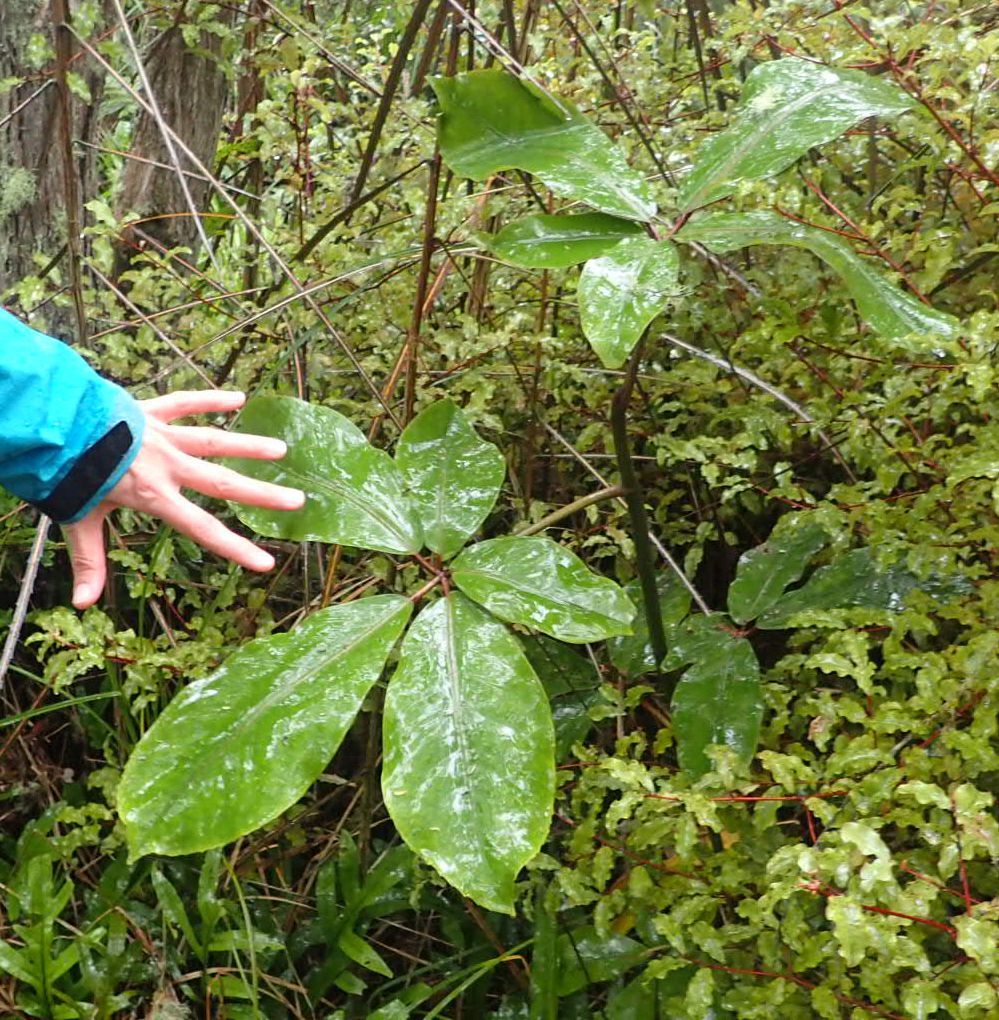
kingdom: Plantae
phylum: Tracheophyta
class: Magnoliopsida
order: Apiales
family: Araliaceae
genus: Neopanax
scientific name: Neopanax laetus
